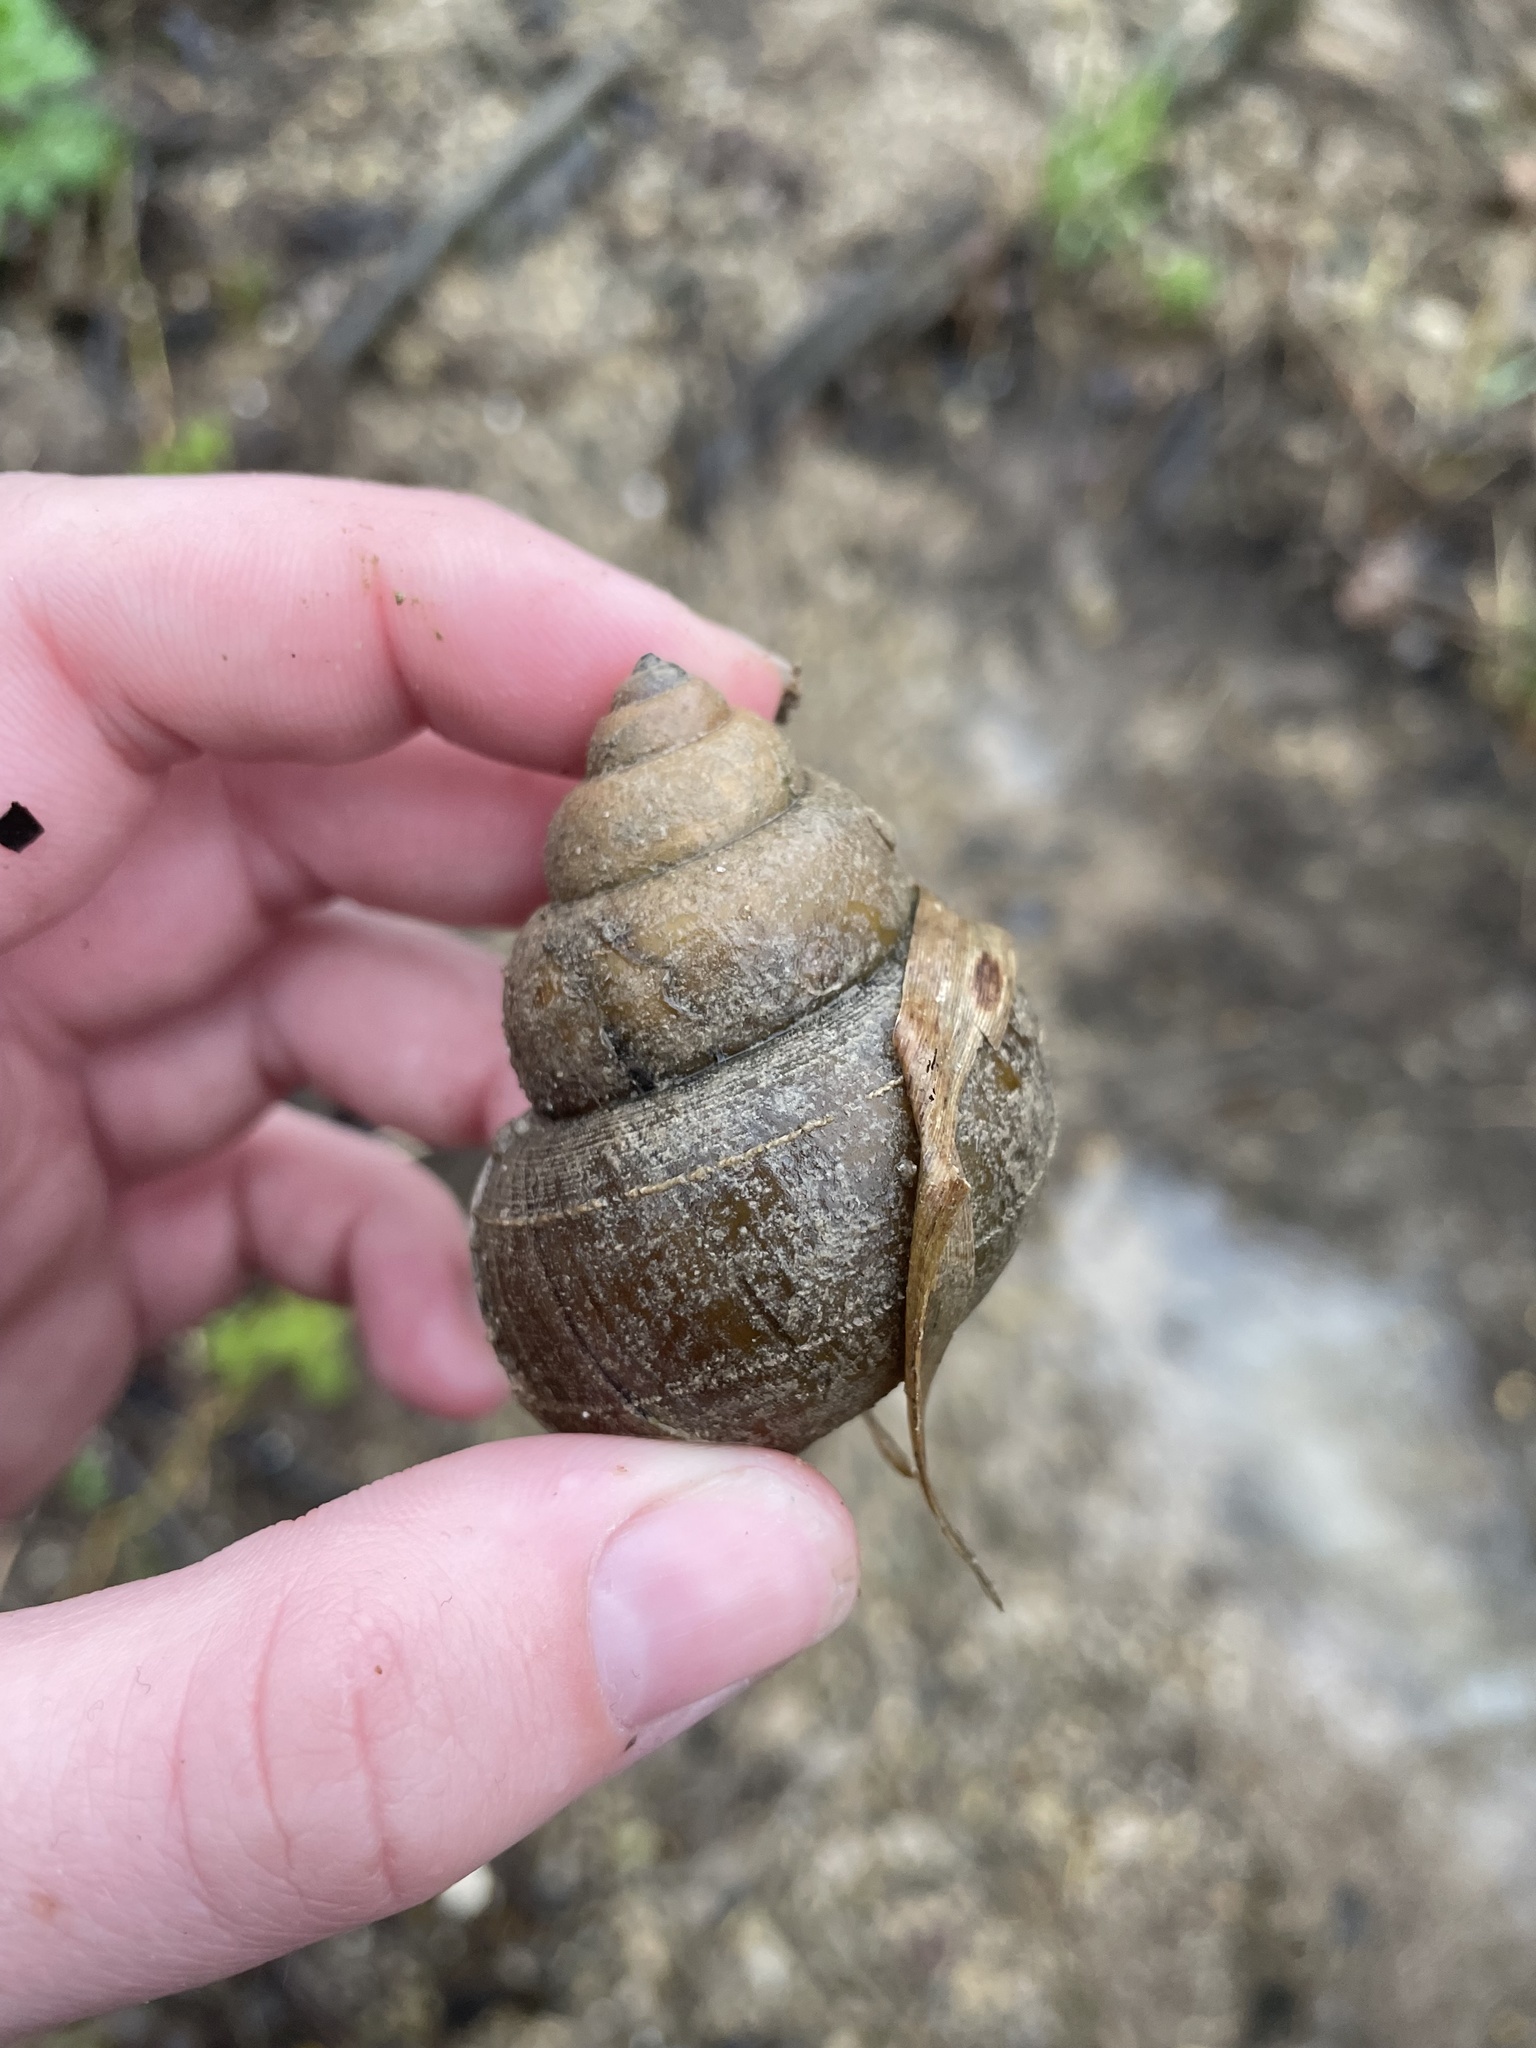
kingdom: Animalia
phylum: Mollusca
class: Gastropoda
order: Architaenioglossa
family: Viviparidae
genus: Cipangopaludina
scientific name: Cipangopaludina chinensis
